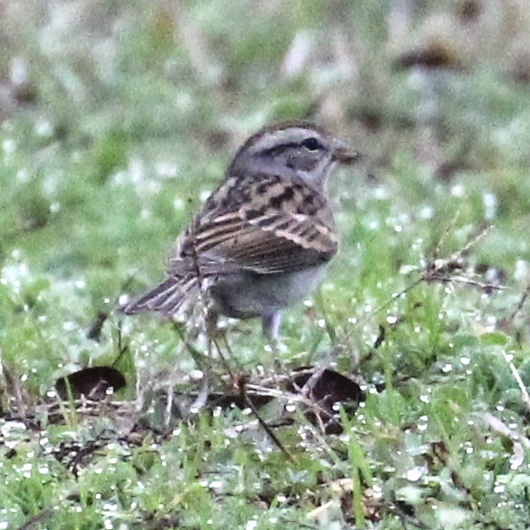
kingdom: Animalia
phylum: Chordata
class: Aves
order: Passeriformes
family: Passerellidae
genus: Spizella
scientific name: Spizella passerina
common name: Chipping sparrow
